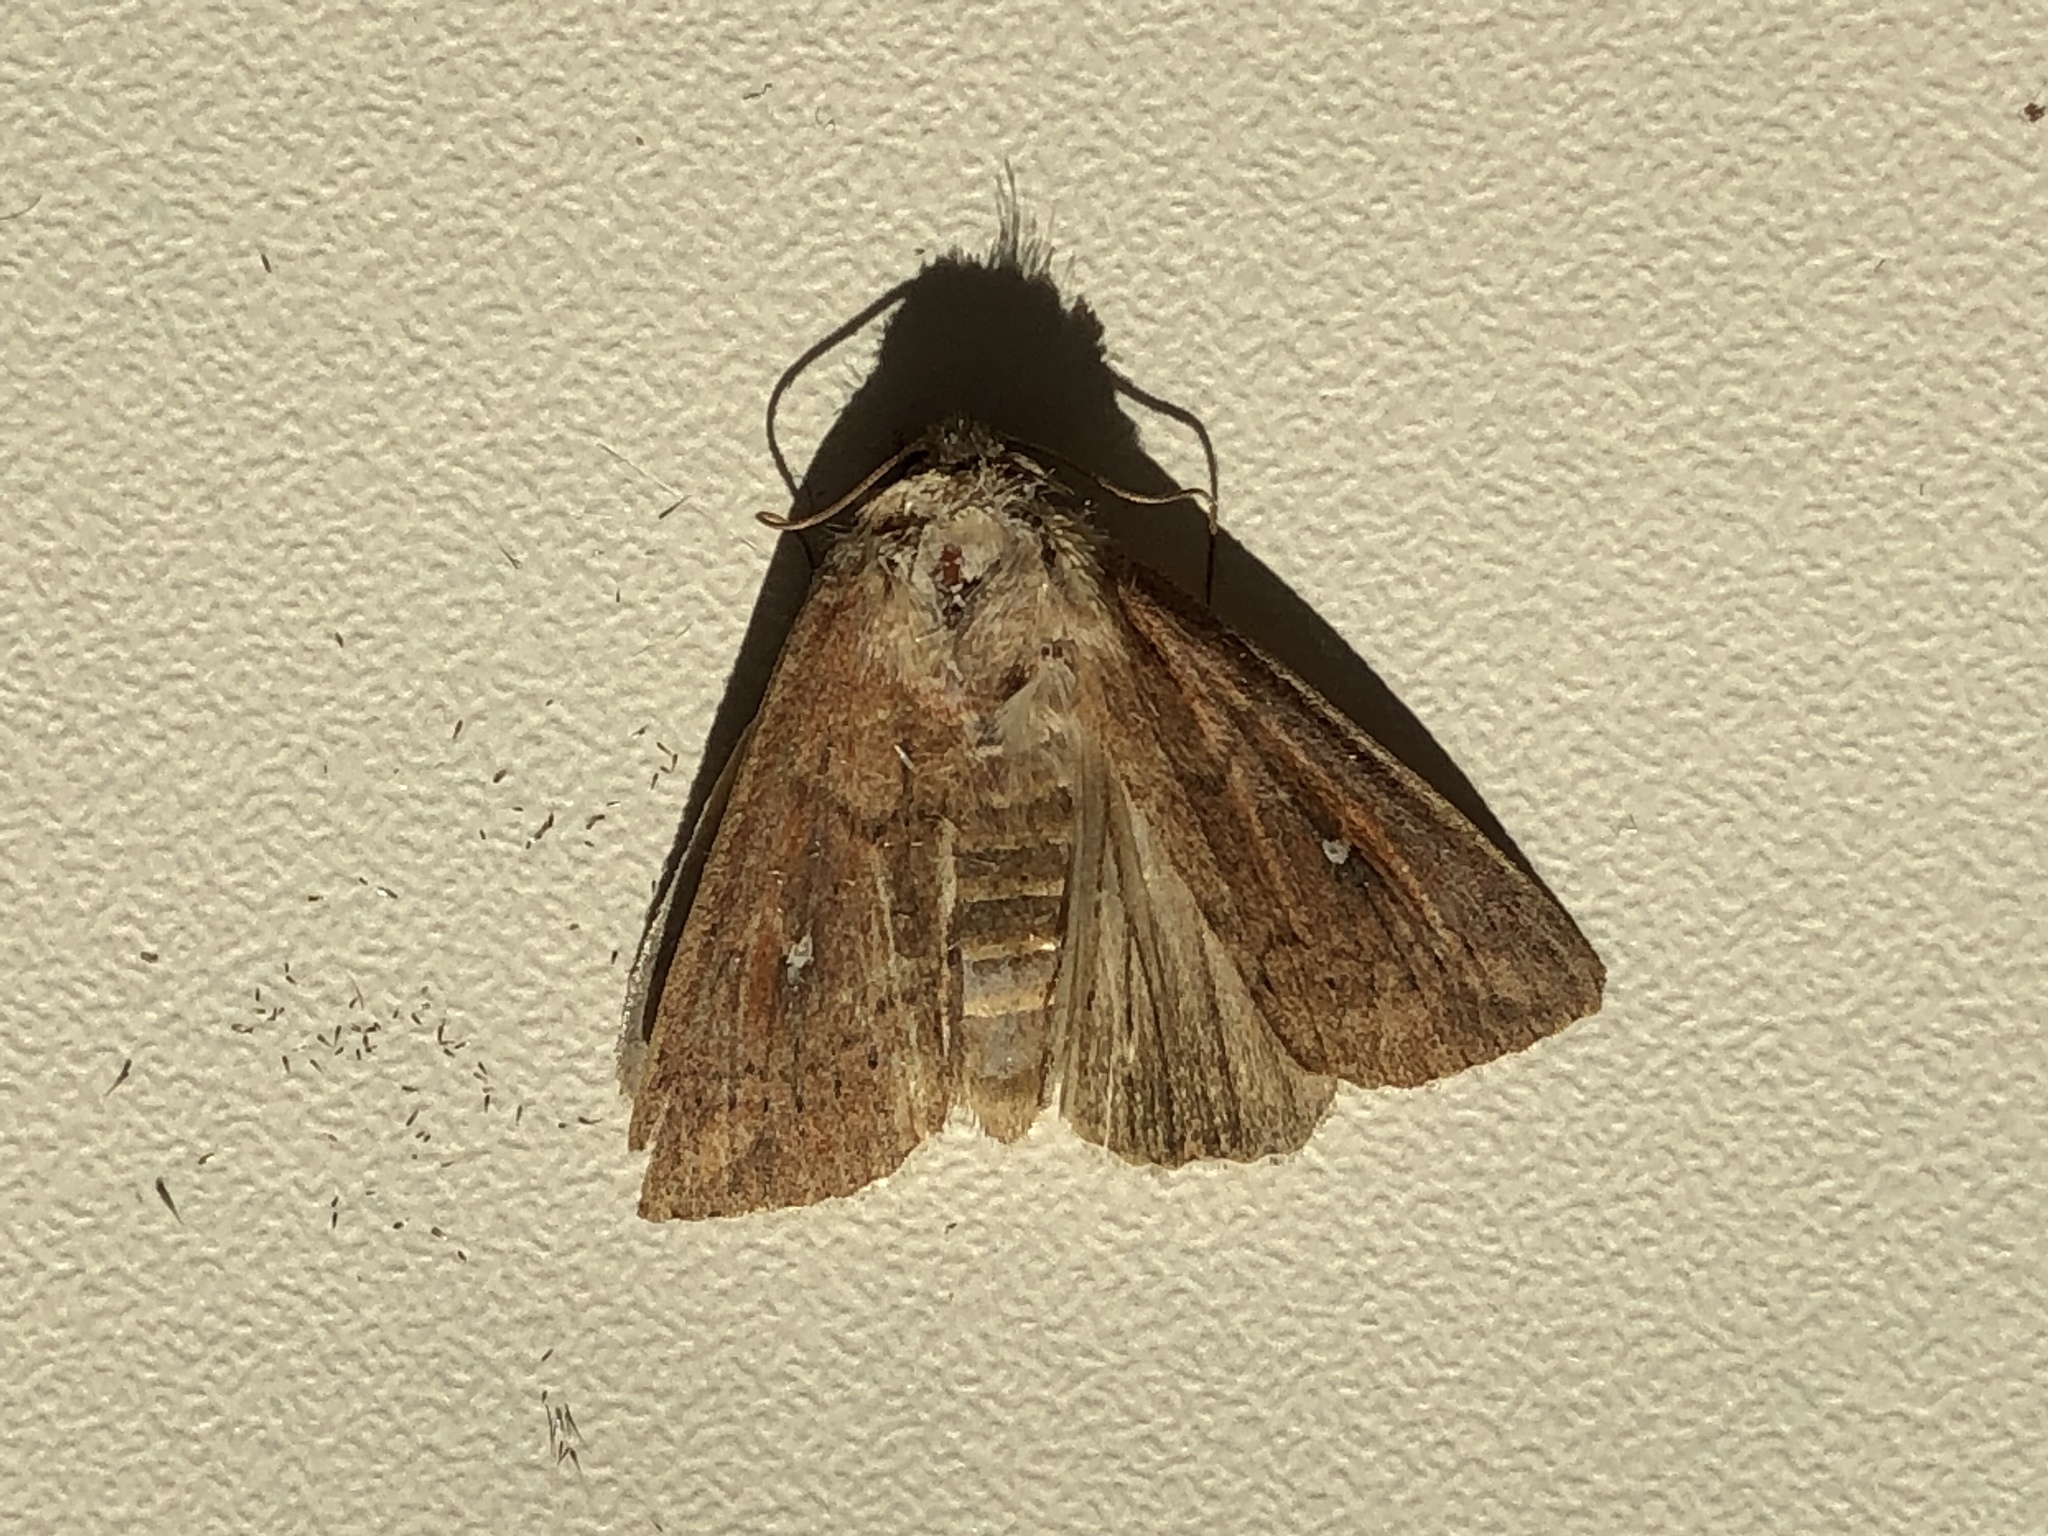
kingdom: Animalia
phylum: Arthropoda
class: Insecta
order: Lepidoptera
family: Noctuidae
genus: Mythimna
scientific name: Mythimna albipuncta
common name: White-point
